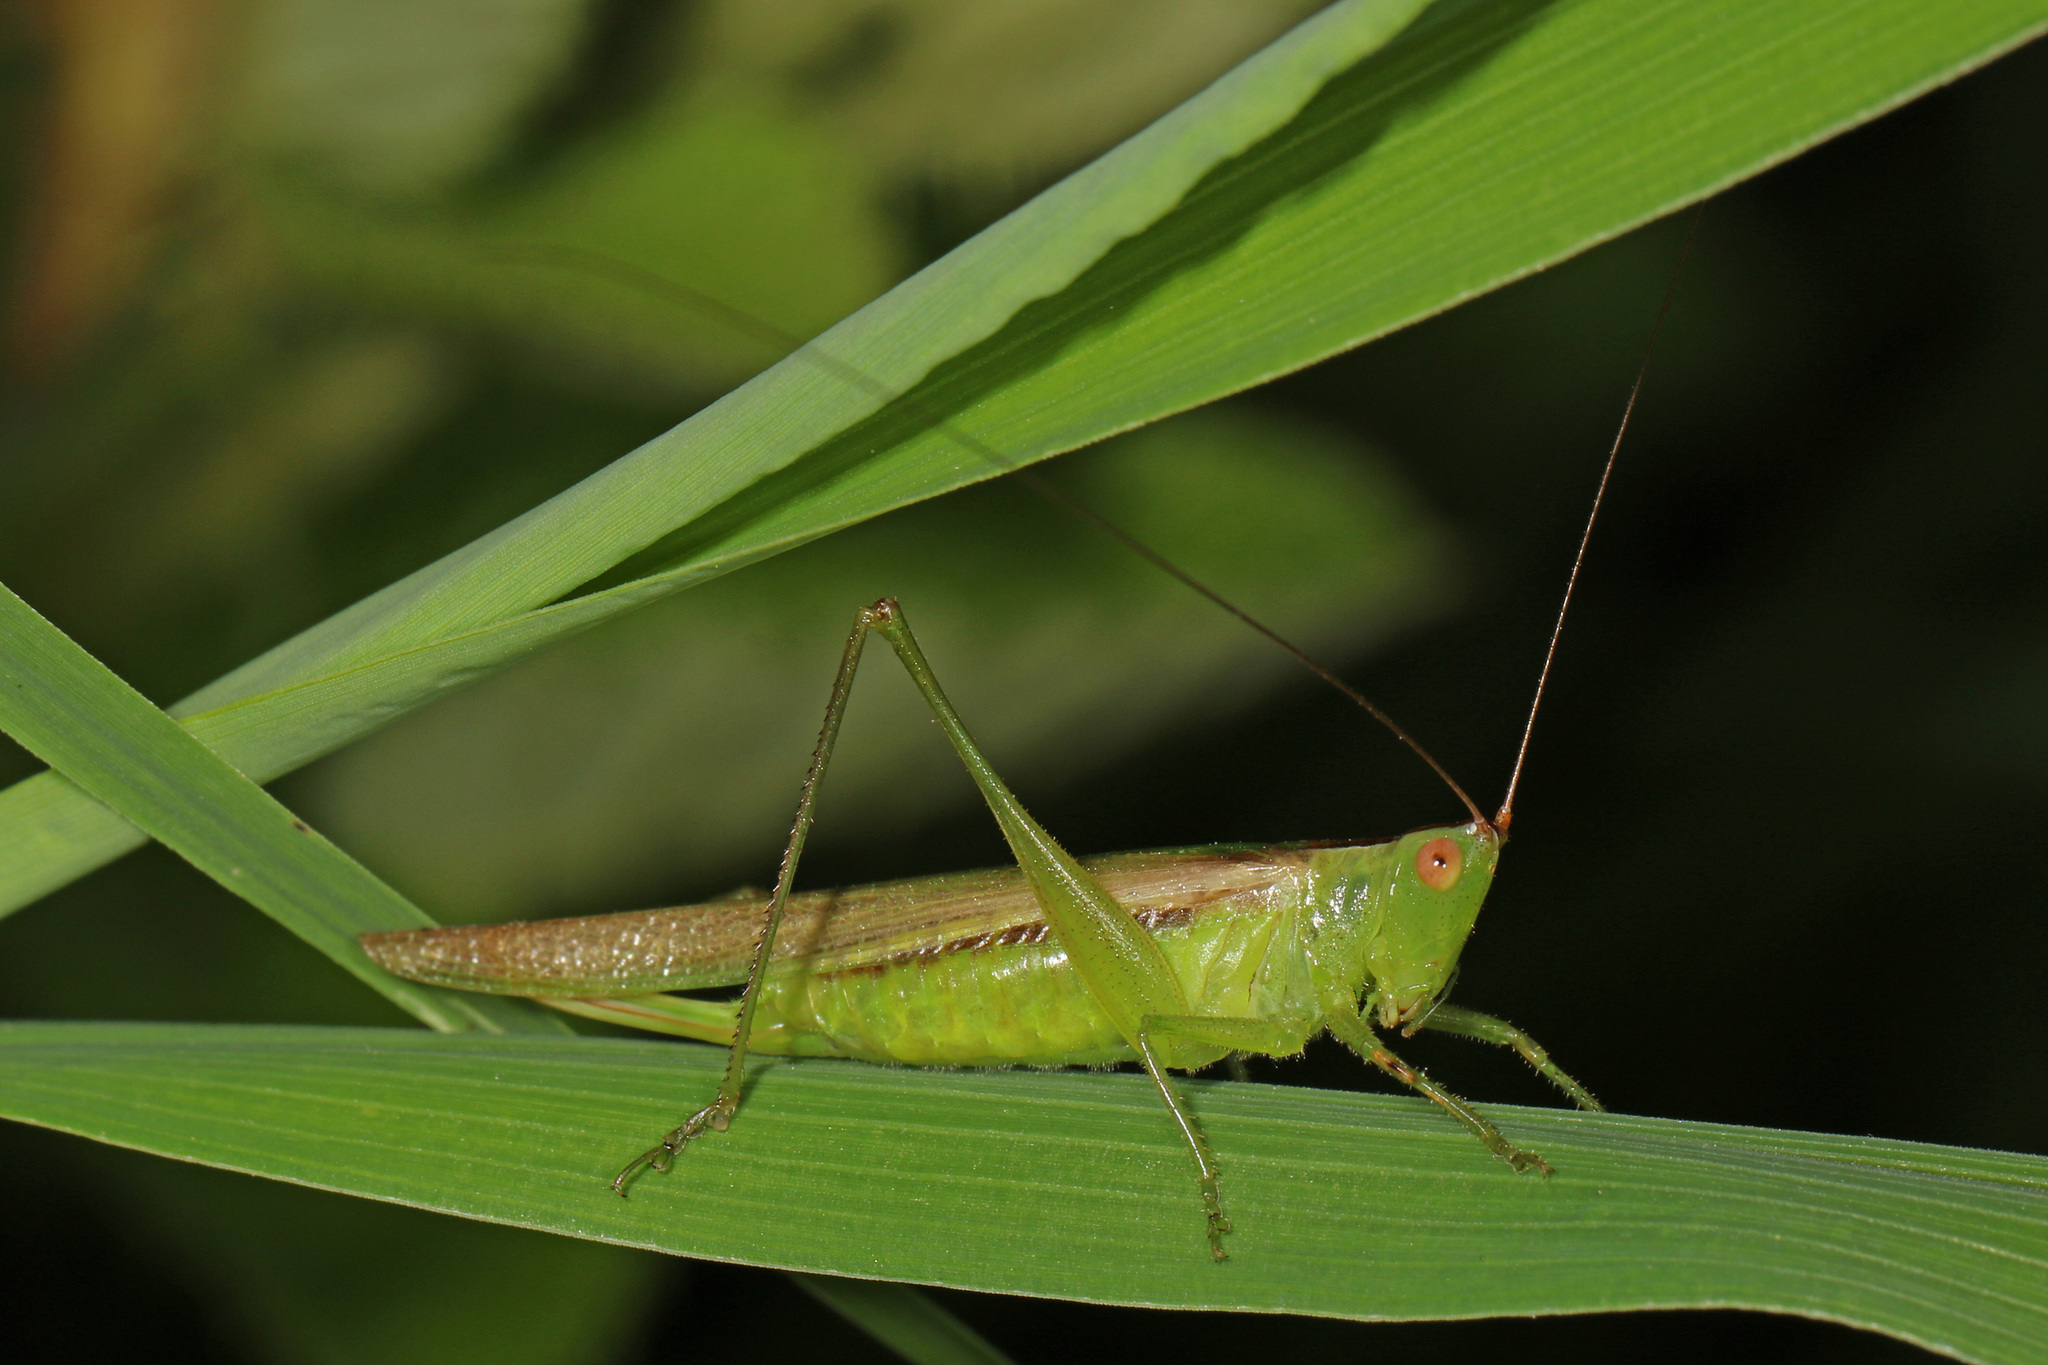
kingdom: Animalia
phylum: Arthropoda
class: Insecta
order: Orthoptera
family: Tettigoniidae
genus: Conocephalus
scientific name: Conocephalus fasciatus
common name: Slender meadow katydid
